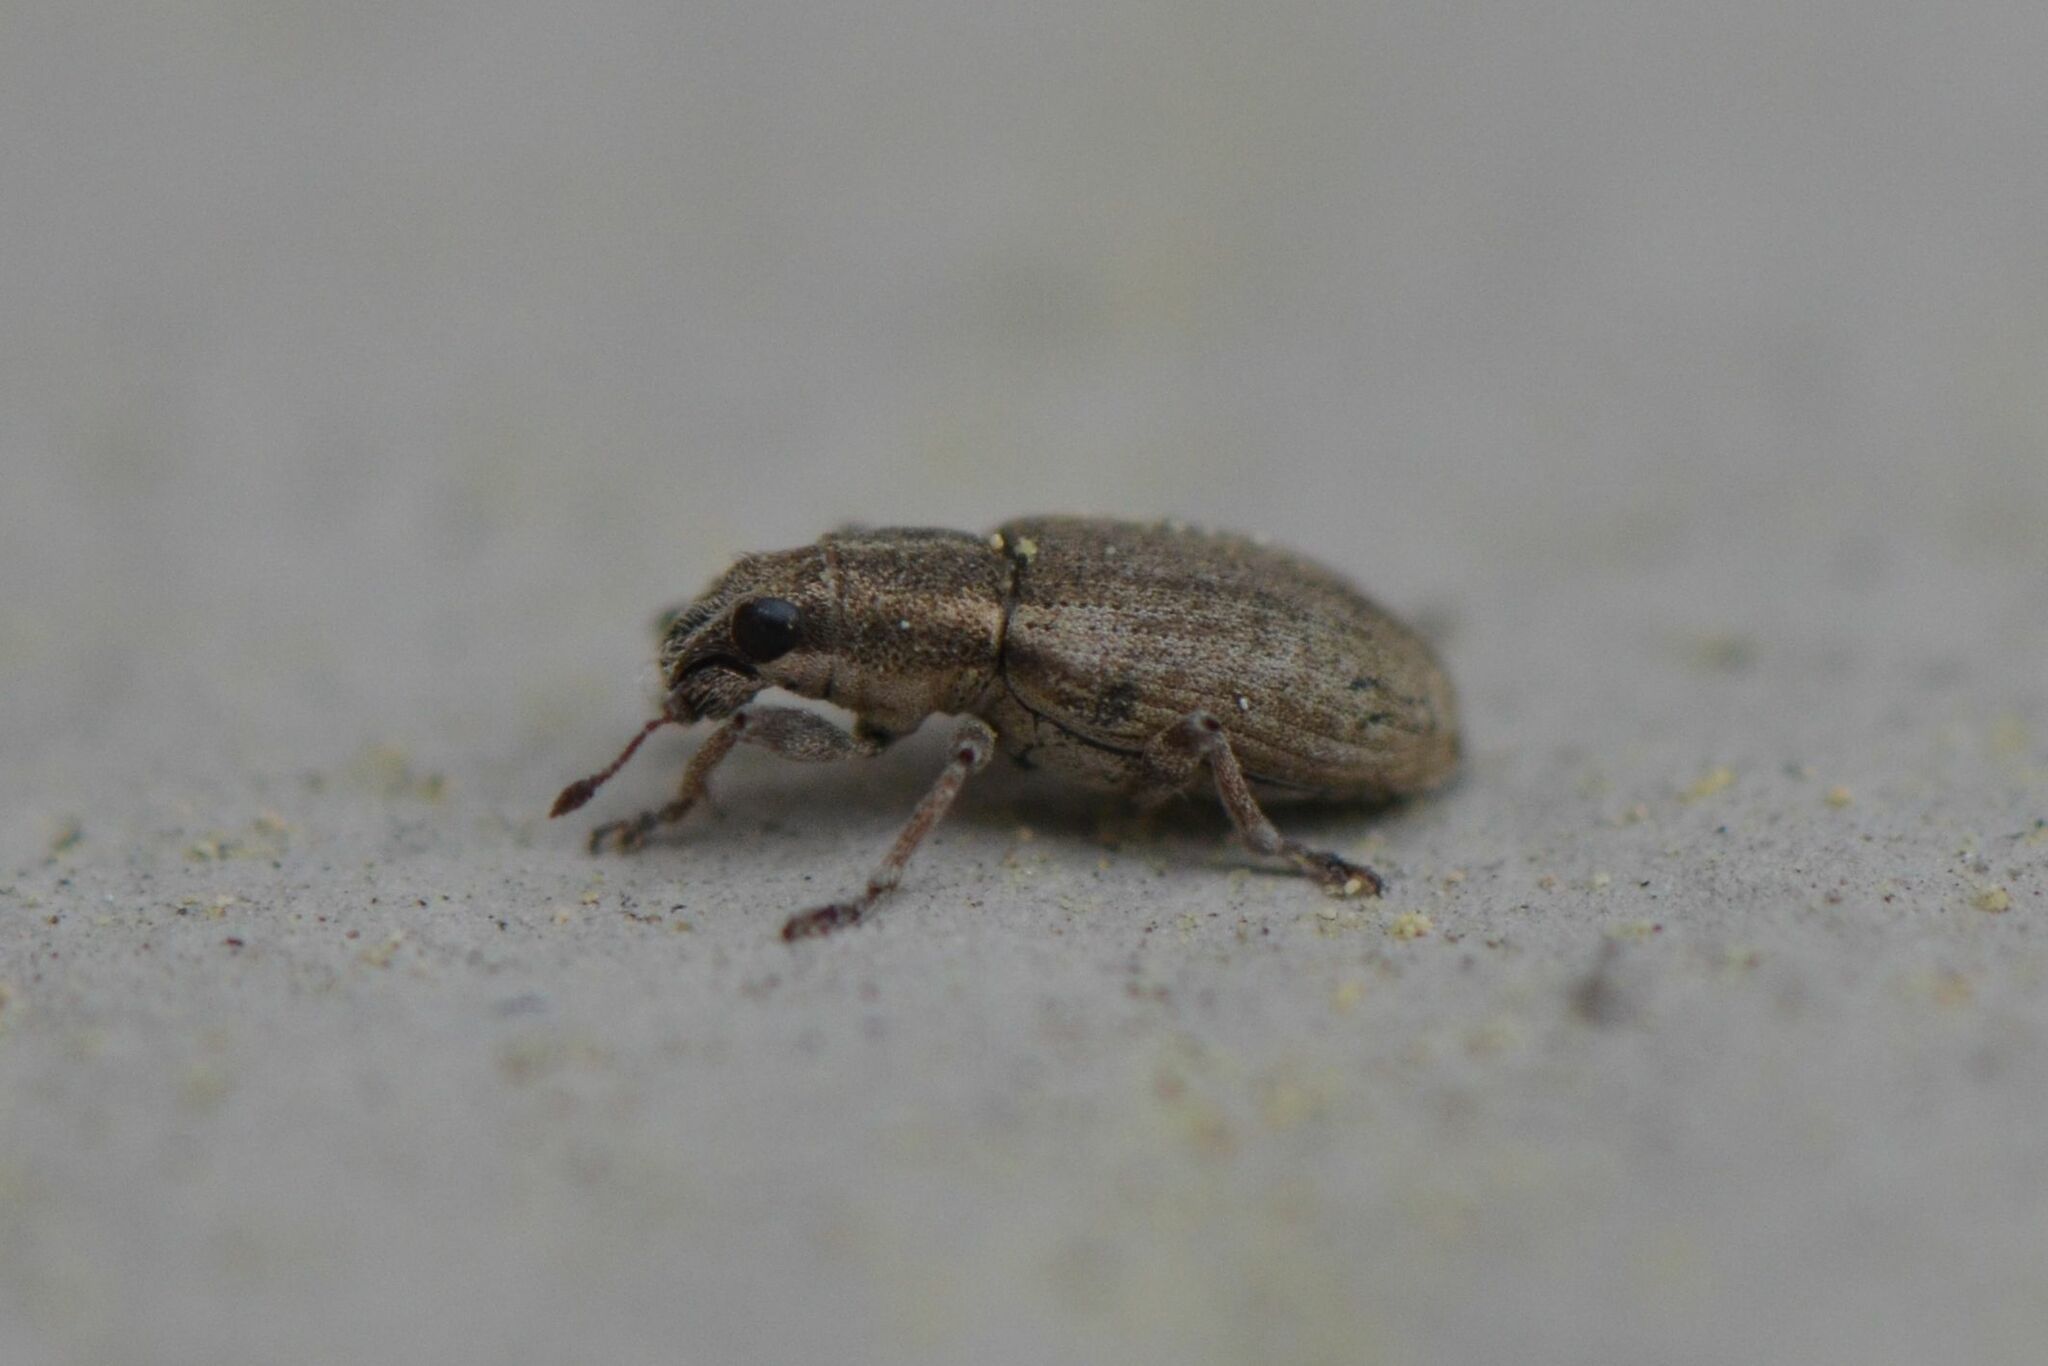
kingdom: Animalia
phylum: Arthropoda
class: Insecta
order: Coleoptera
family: Curculionidae
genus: Sitona
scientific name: Sitona humeralis
